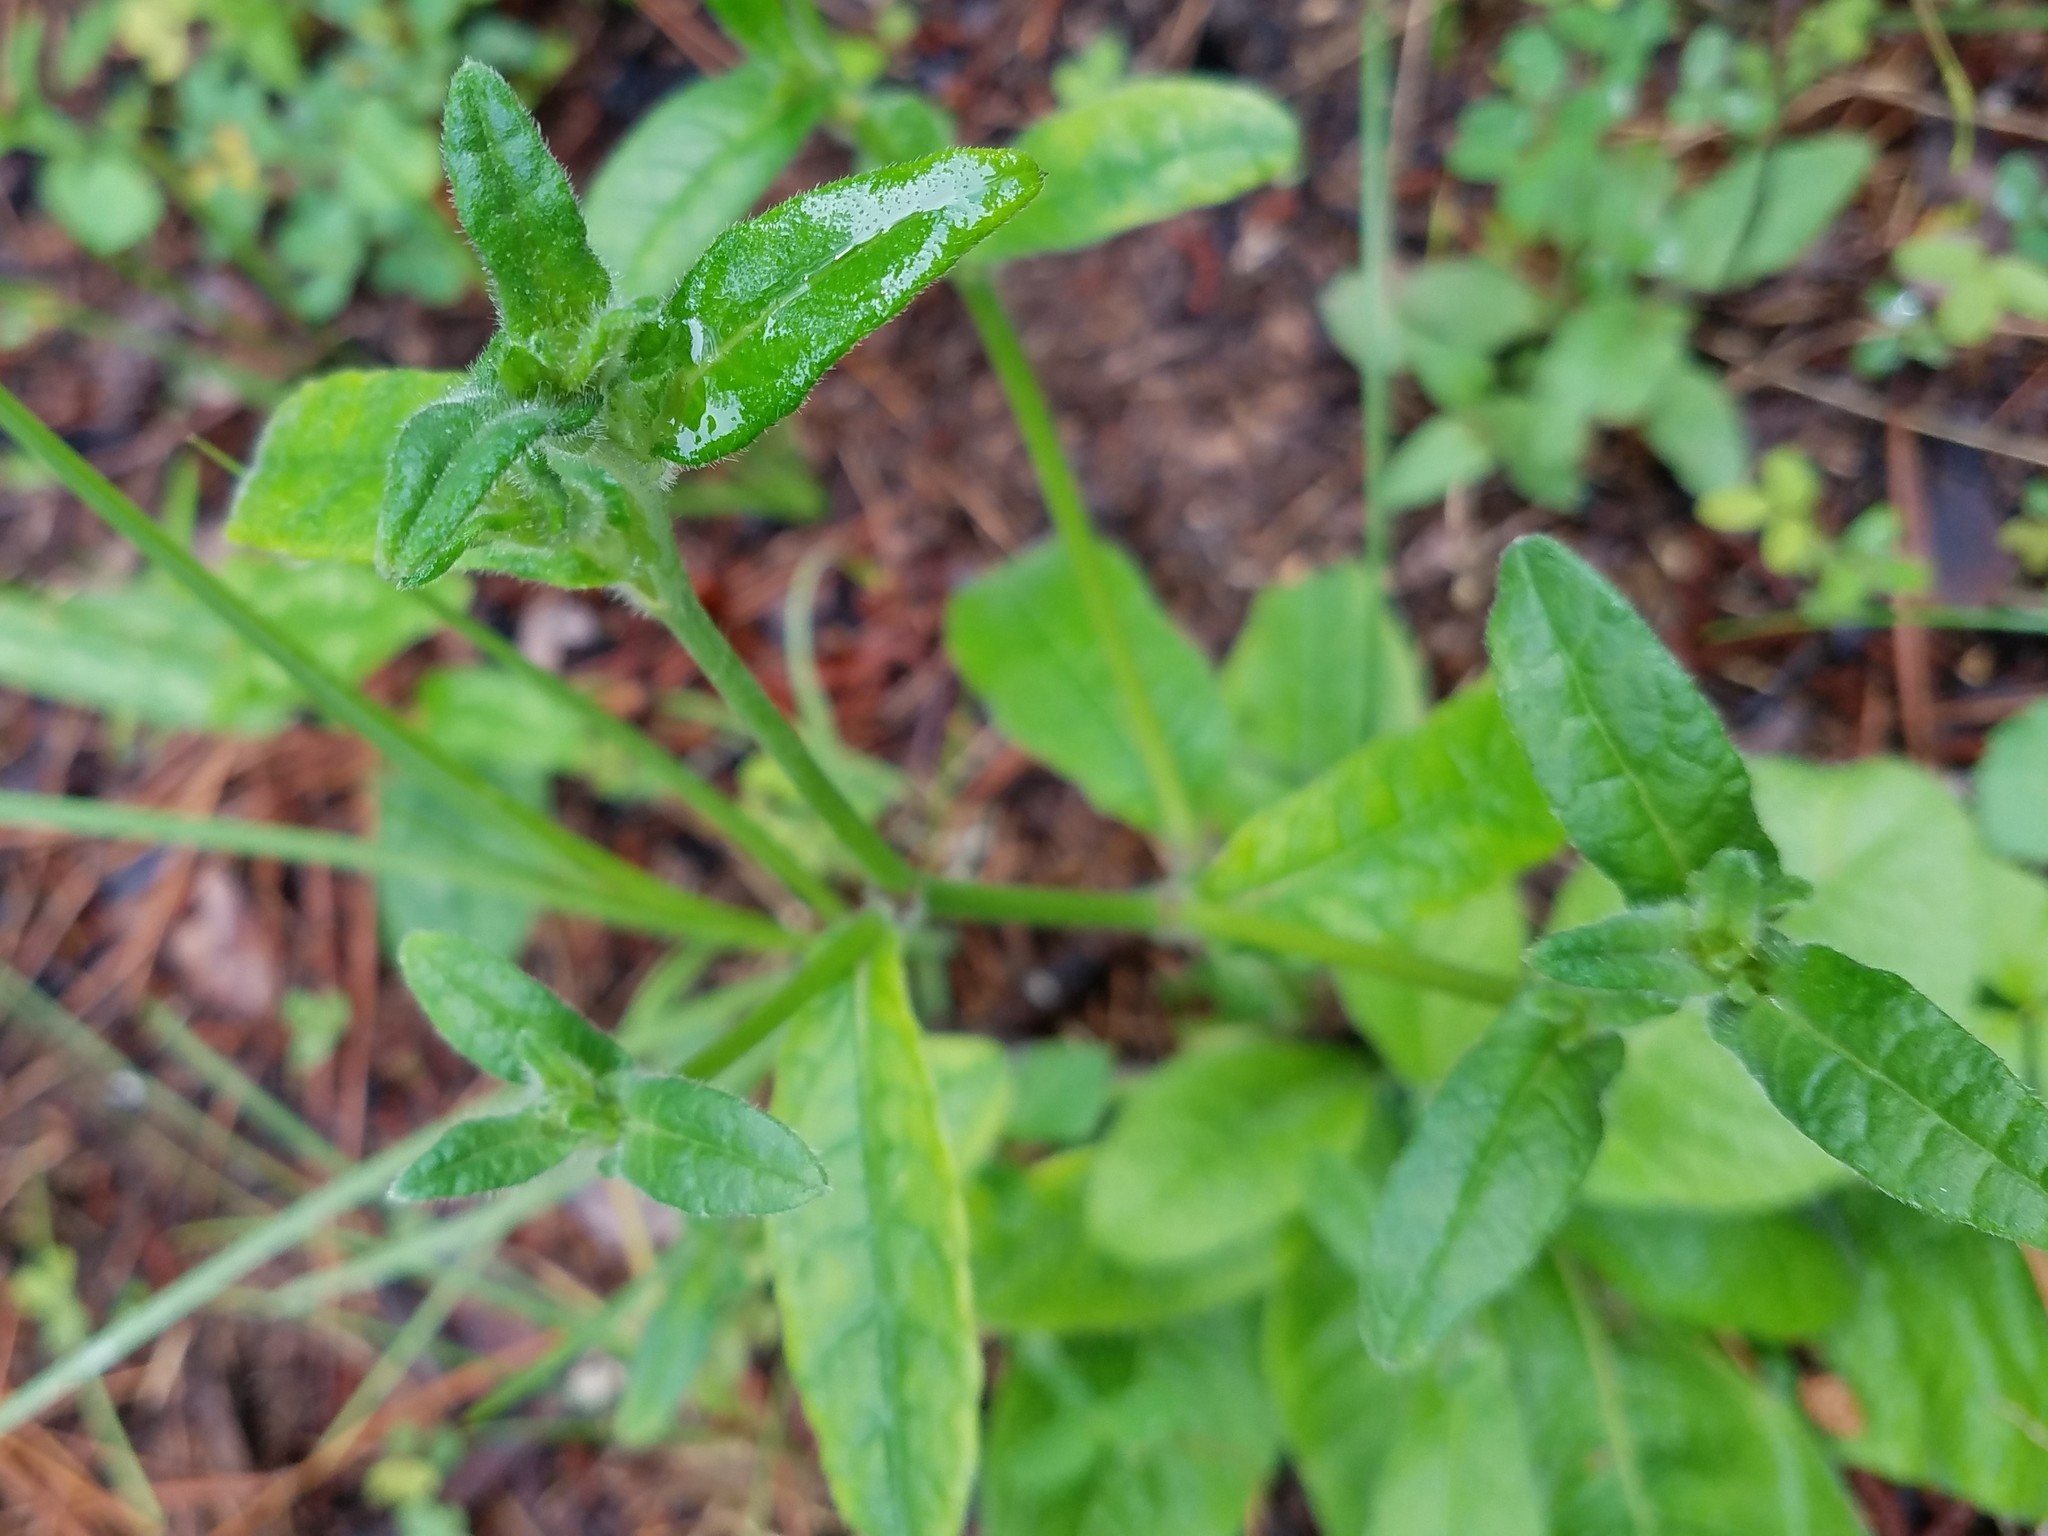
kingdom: Plantae
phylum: Tracheophyta
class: Magnoliopsida
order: Asterales
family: Asteraceae
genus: Elephantopus
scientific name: Elephantopus tomentosus
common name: Tobacco-weed
